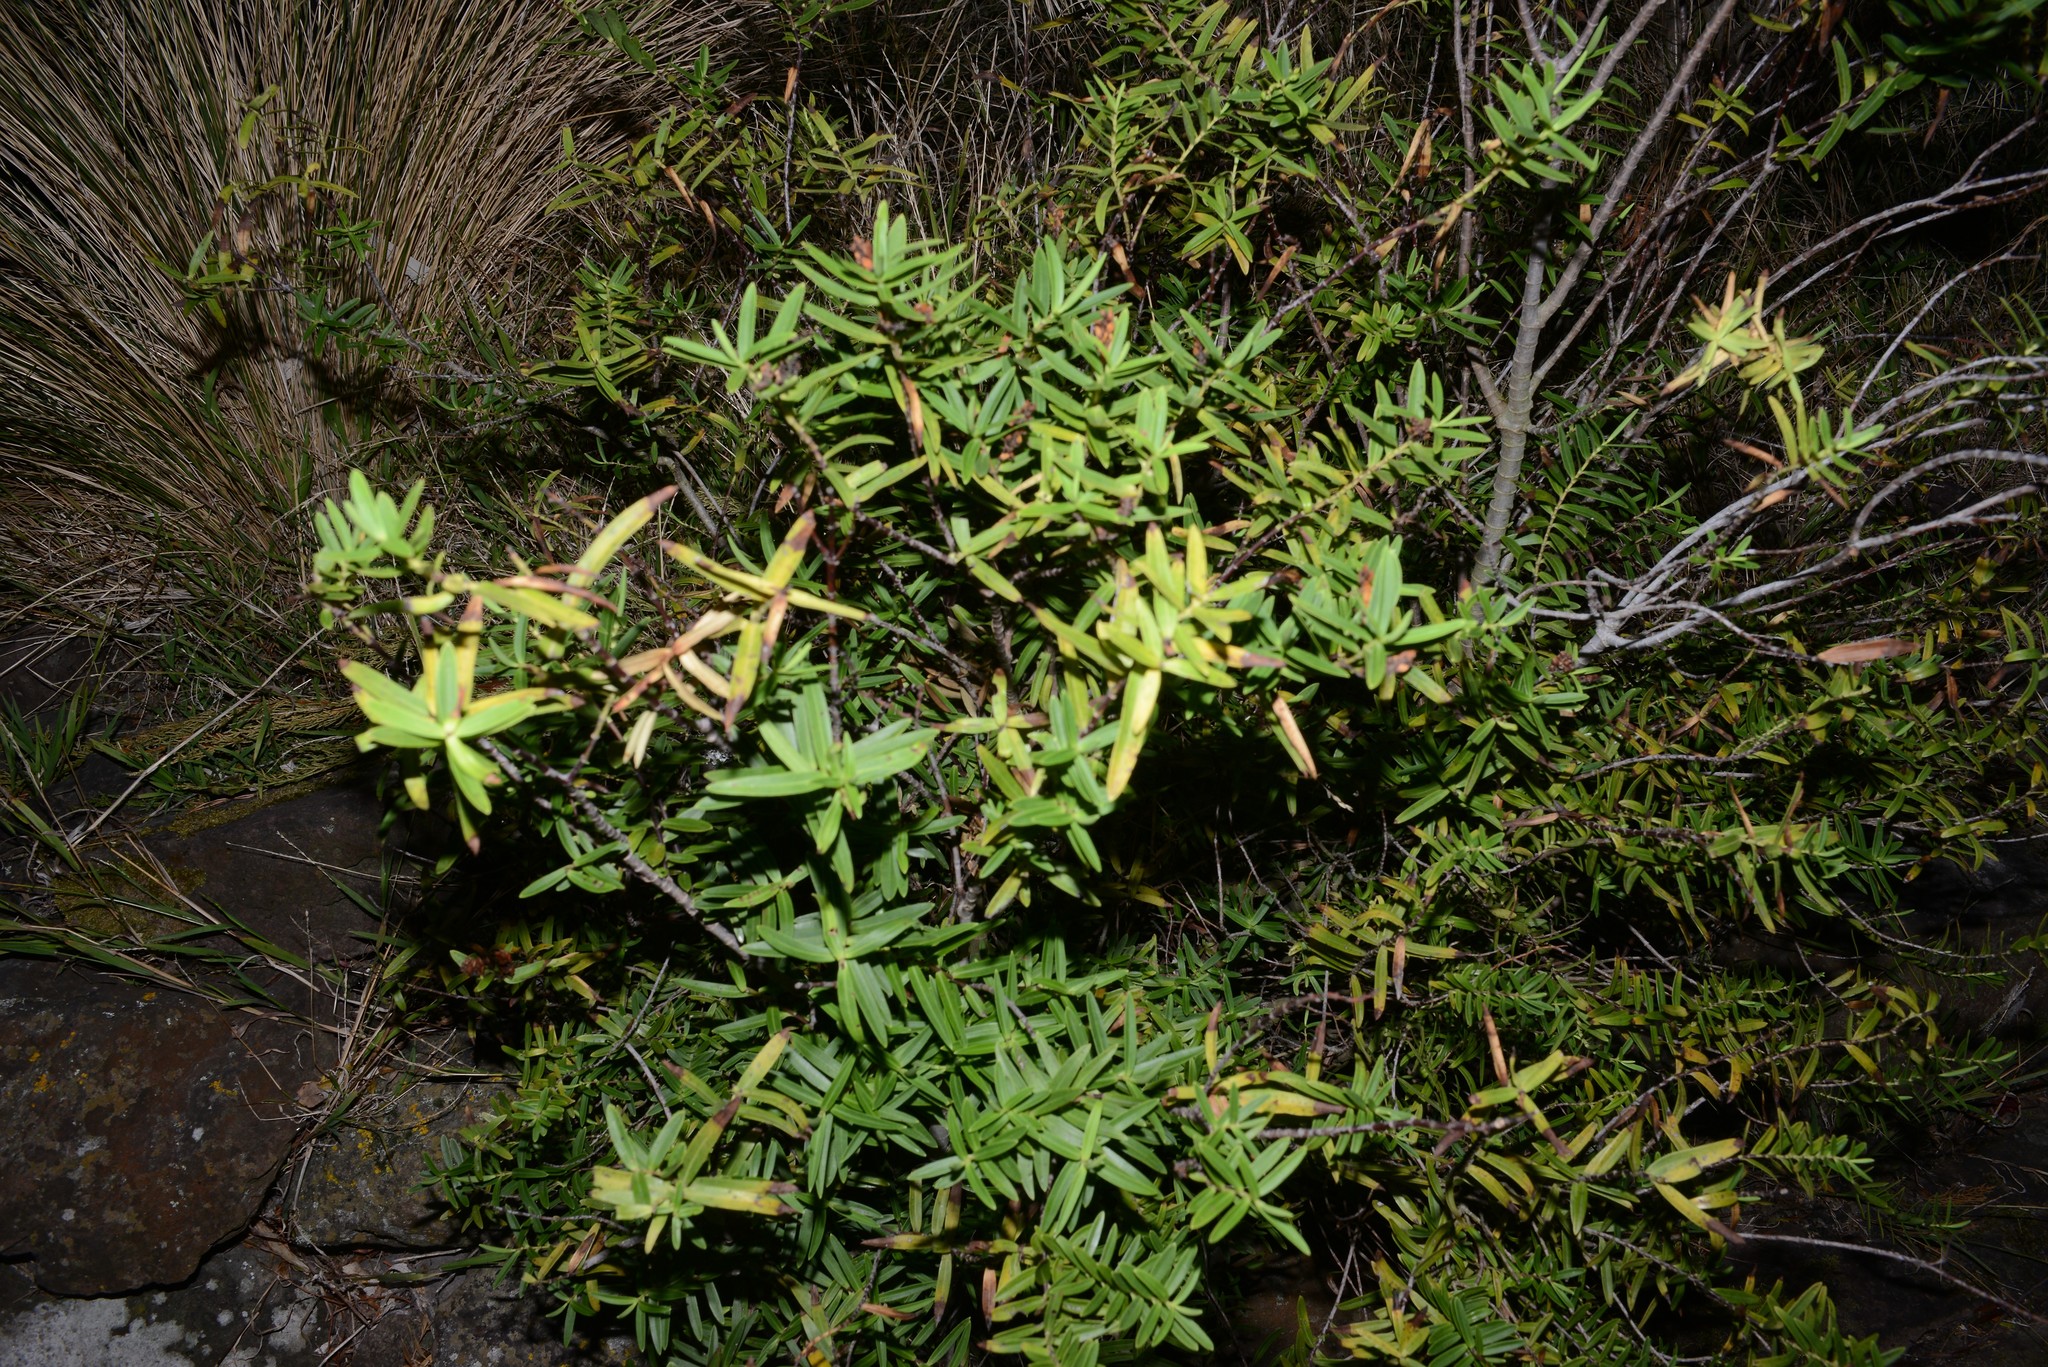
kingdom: Plantae
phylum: Tracheophyta
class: Magnoliopsida
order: Lamiales
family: Plantaginaceae
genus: Veronica
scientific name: Veronica strictissima
